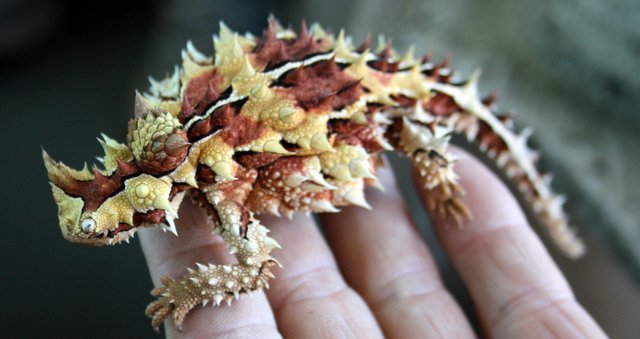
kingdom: Animalia
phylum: Chordata
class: Squamata
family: Agamidae
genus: Moloch
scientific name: Moloch horridus
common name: Mountain devil
